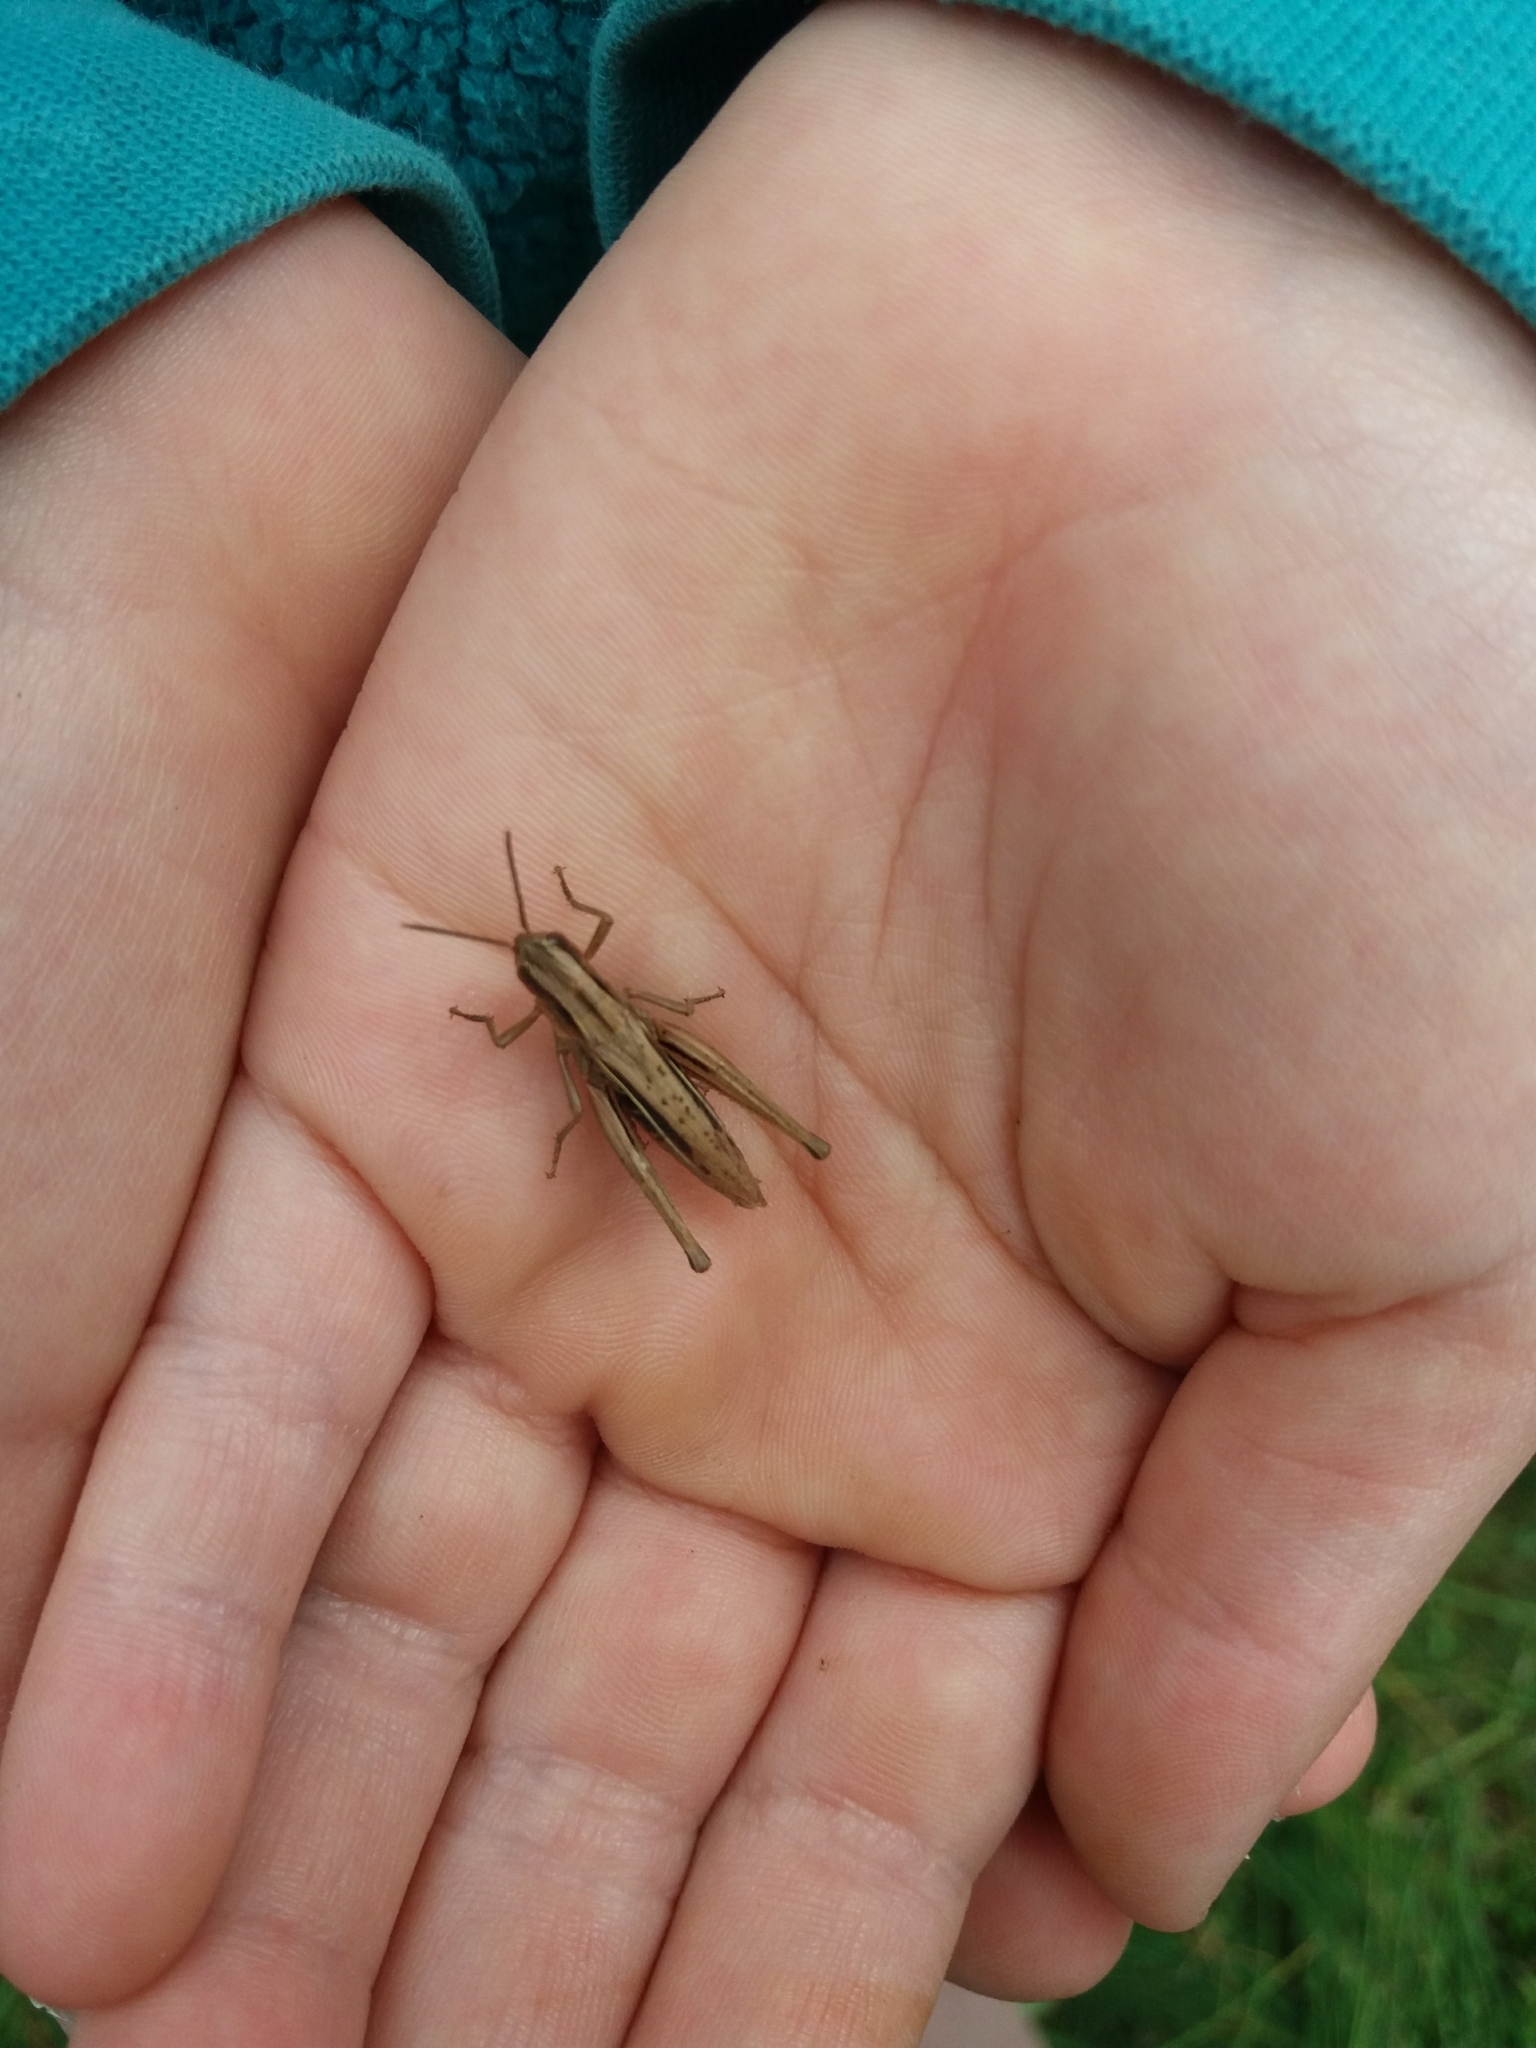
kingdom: Animalia
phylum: Arthropoda
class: Insecta
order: Orthoptera
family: Acrididae
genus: Chorthippus
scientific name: Chorthippus albomarginatus
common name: Lesser marsh grasshopper
